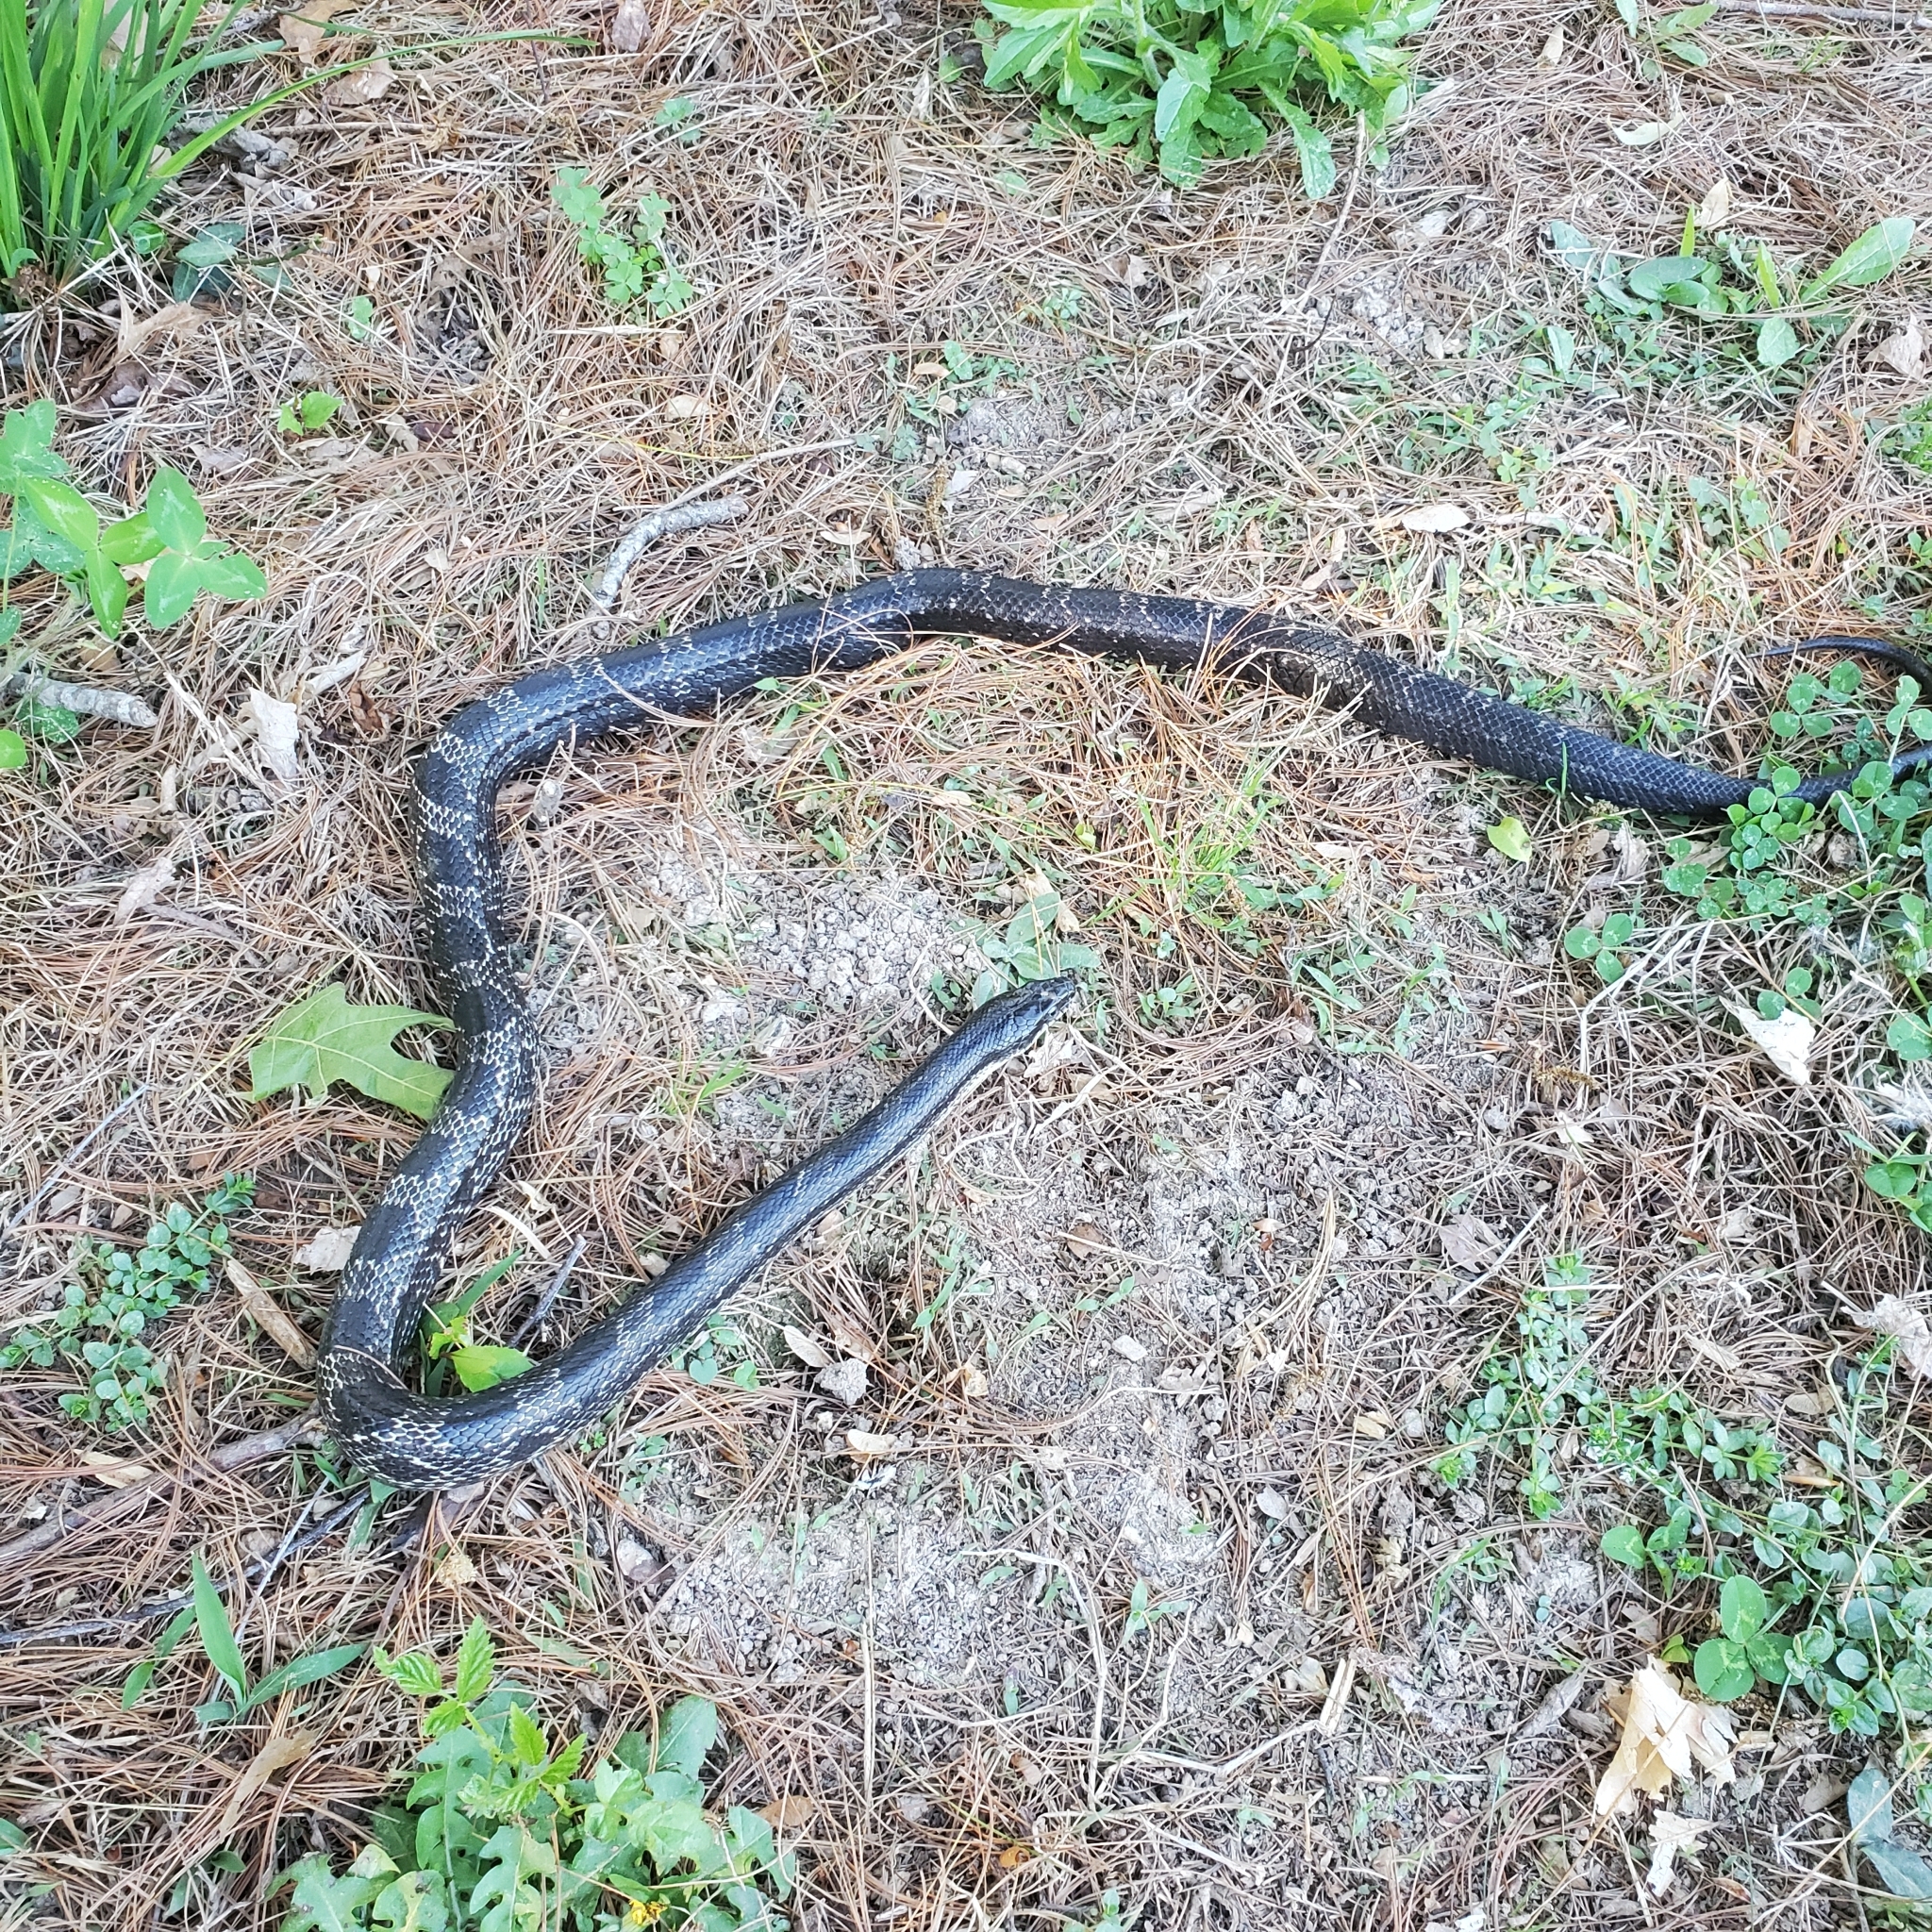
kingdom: Animalia
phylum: Chordata
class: Squamata
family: Colubridae
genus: Pantherophis
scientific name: Pantherophis spiloides
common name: Gray rat snake
